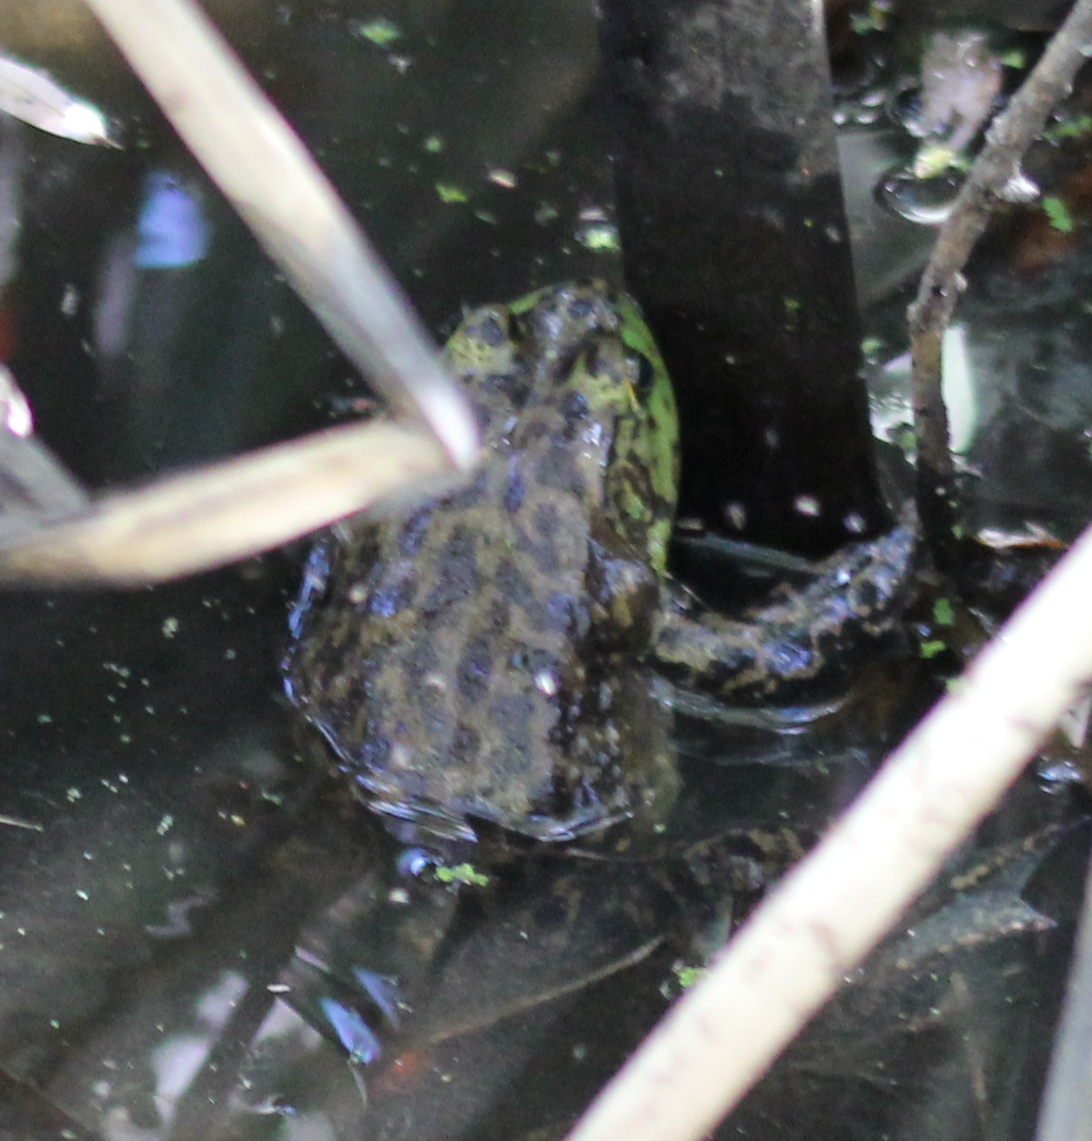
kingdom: Animalia
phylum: Chordata
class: Amphibia
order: Anura
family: Ranidae
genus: Lithobates
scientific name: Lithobates catesbeianus
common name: American bullfrog
